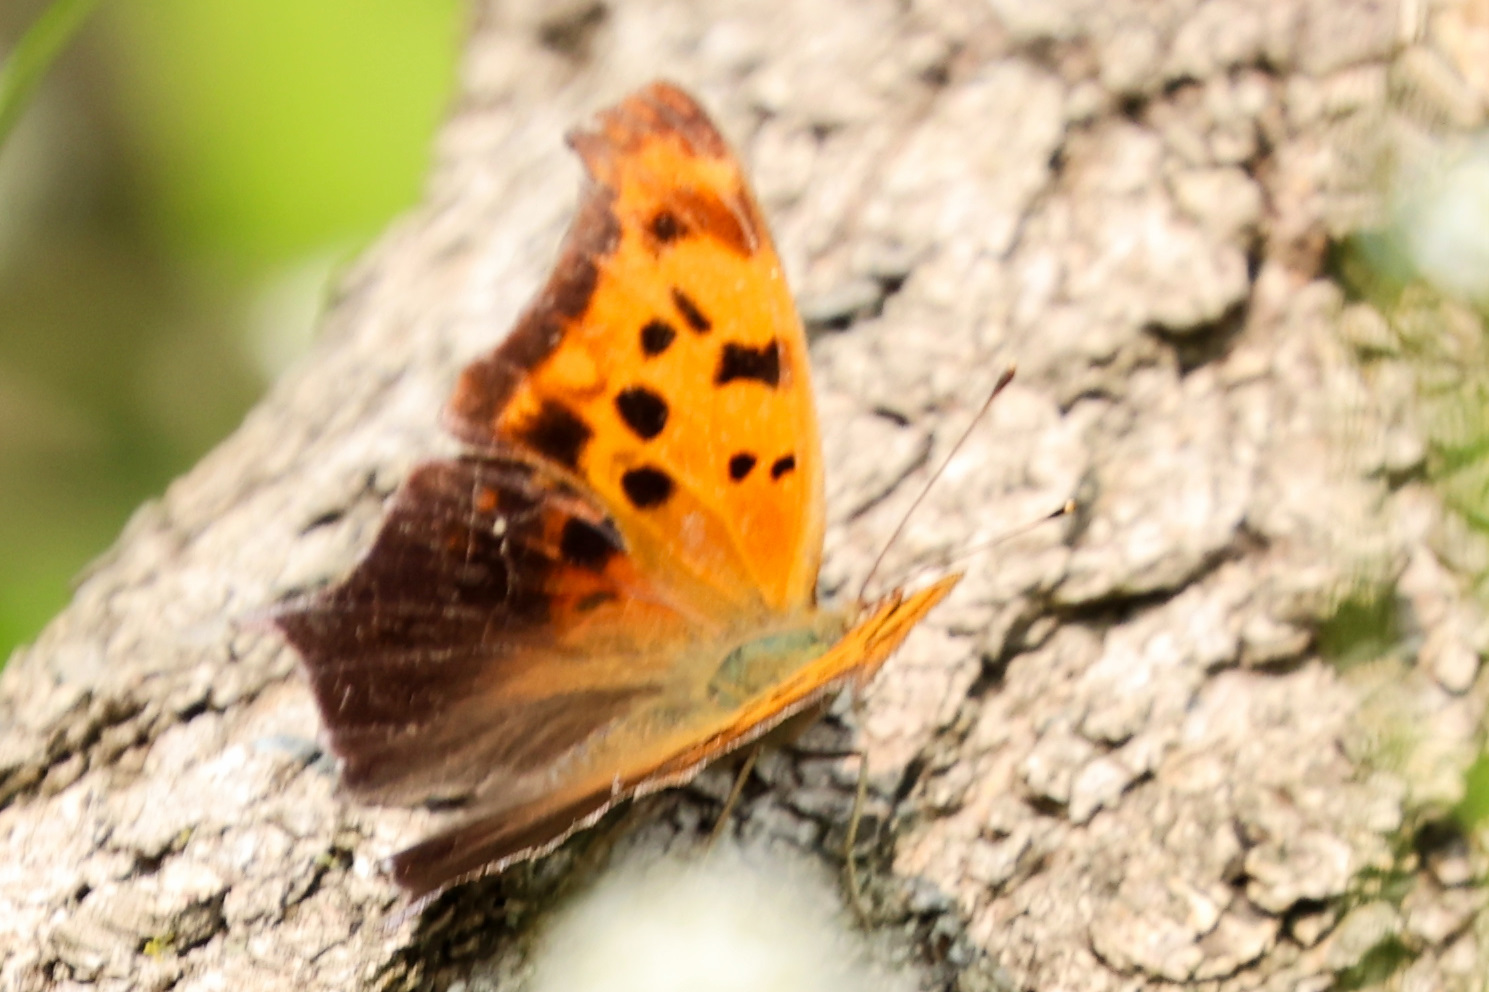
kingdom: Animalia
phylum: Arthropoda
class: Insecta
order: Lepidoptera
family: Nymphalidae
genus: Polygonia
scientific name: Polygonia interrogationis
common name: Question mark
